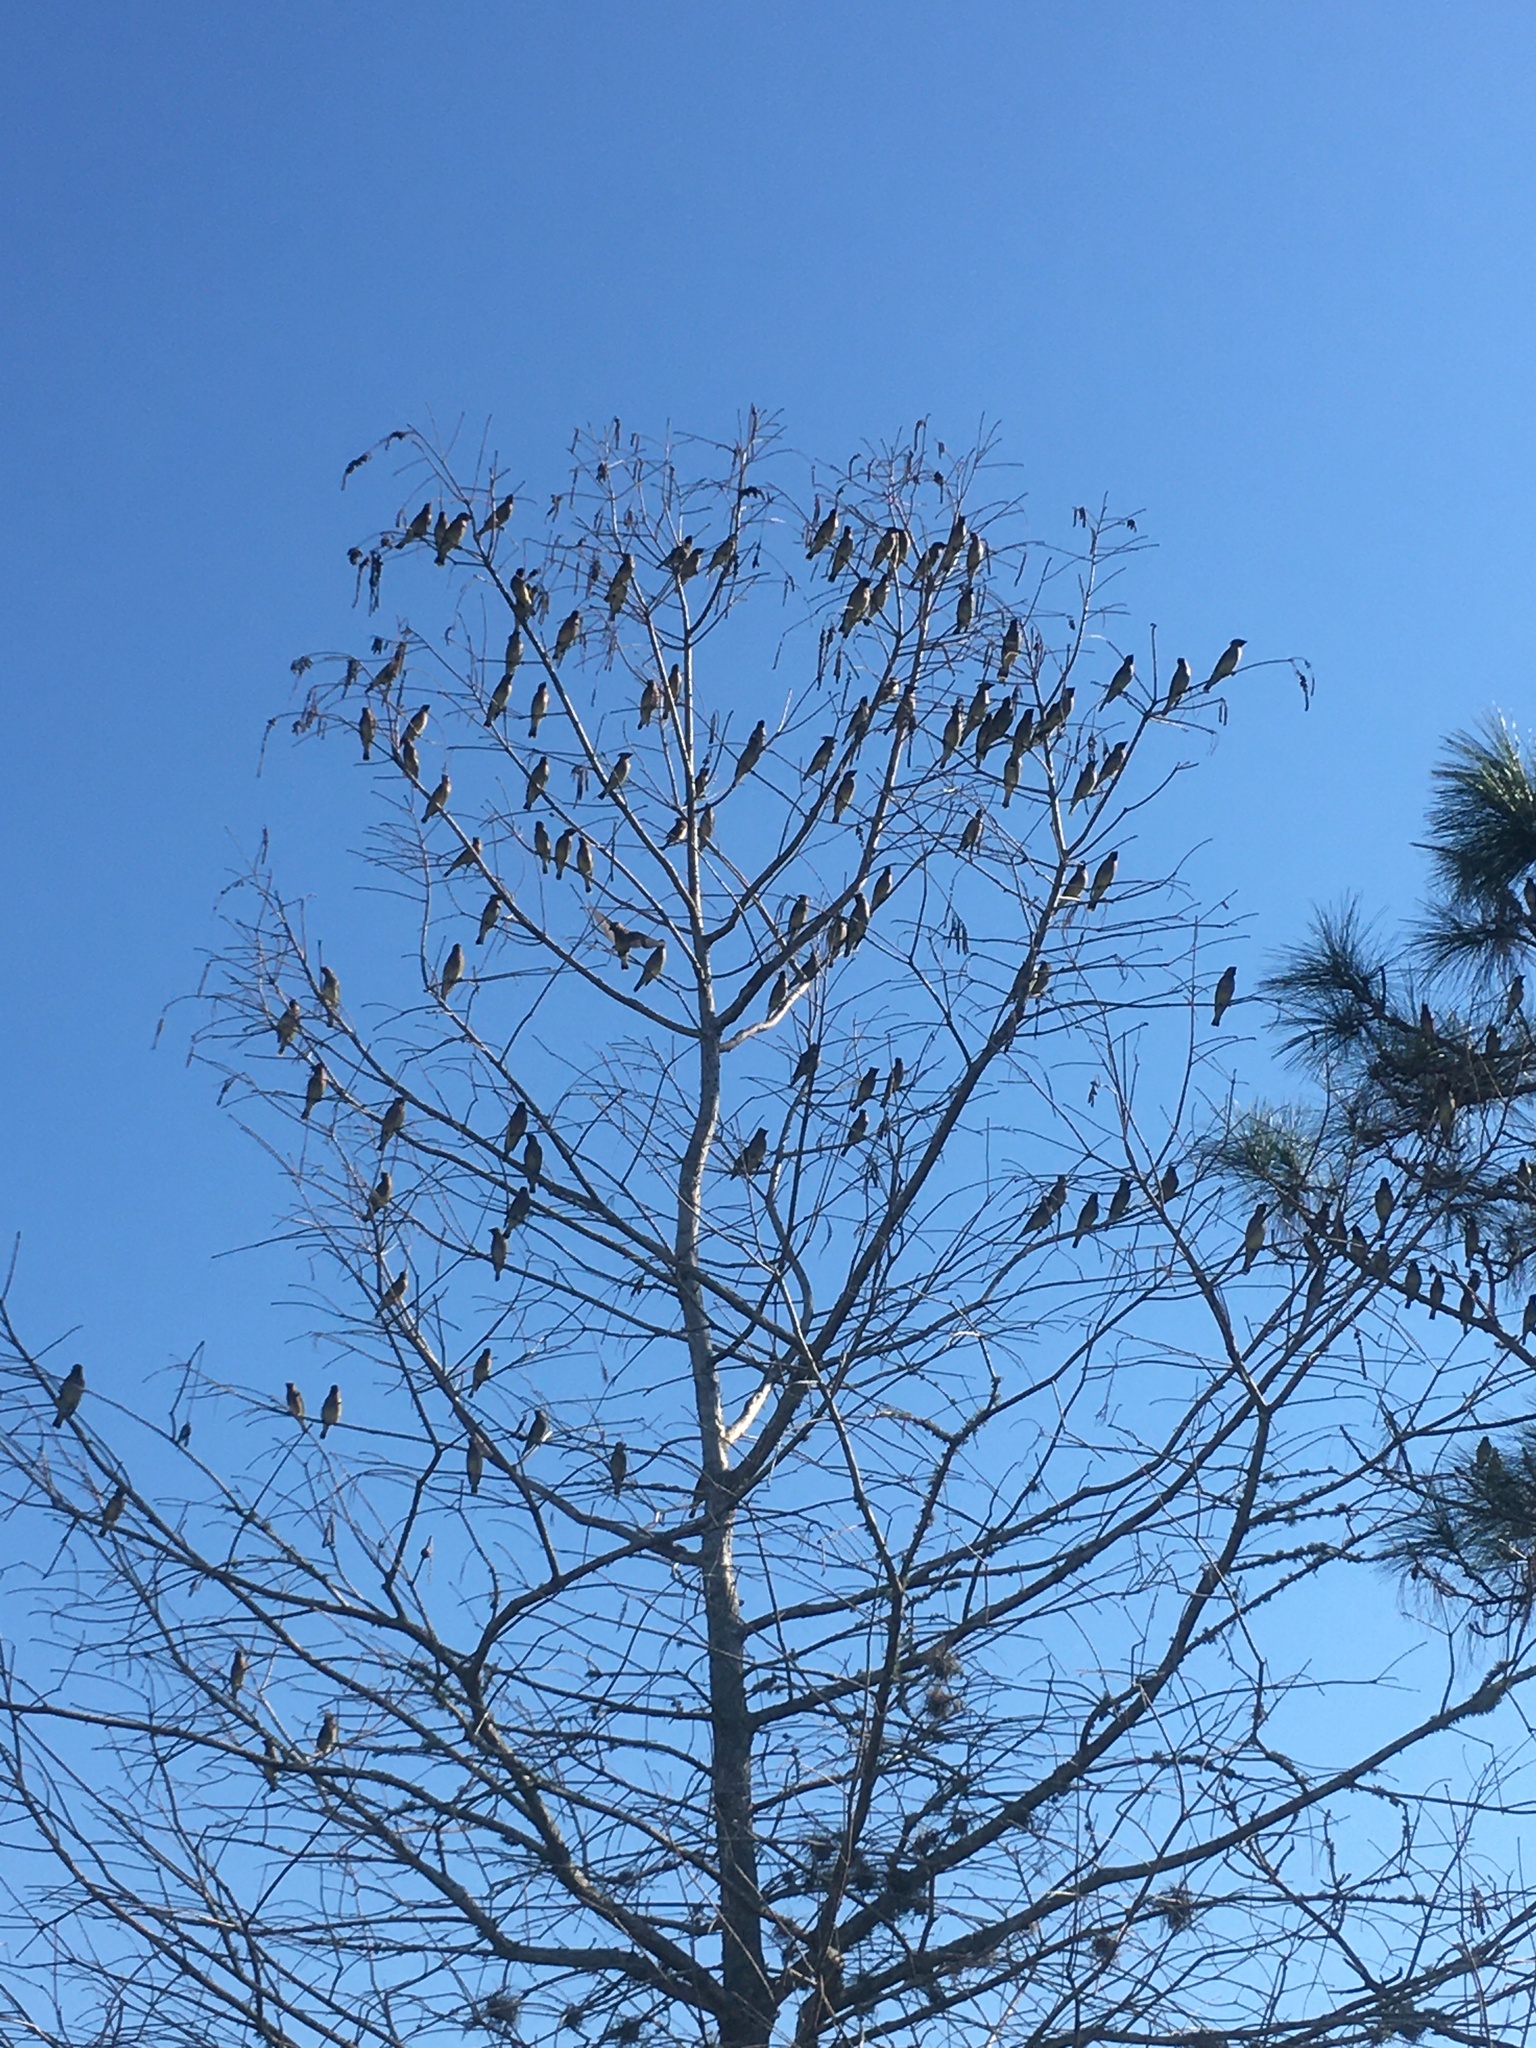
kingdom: Animalia
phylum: Chordata
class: Aves
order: Passeriformes
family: Bombycillidae
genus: Bombycilla
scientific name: Bombycilla cedrorum
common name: Cedar waxwing
